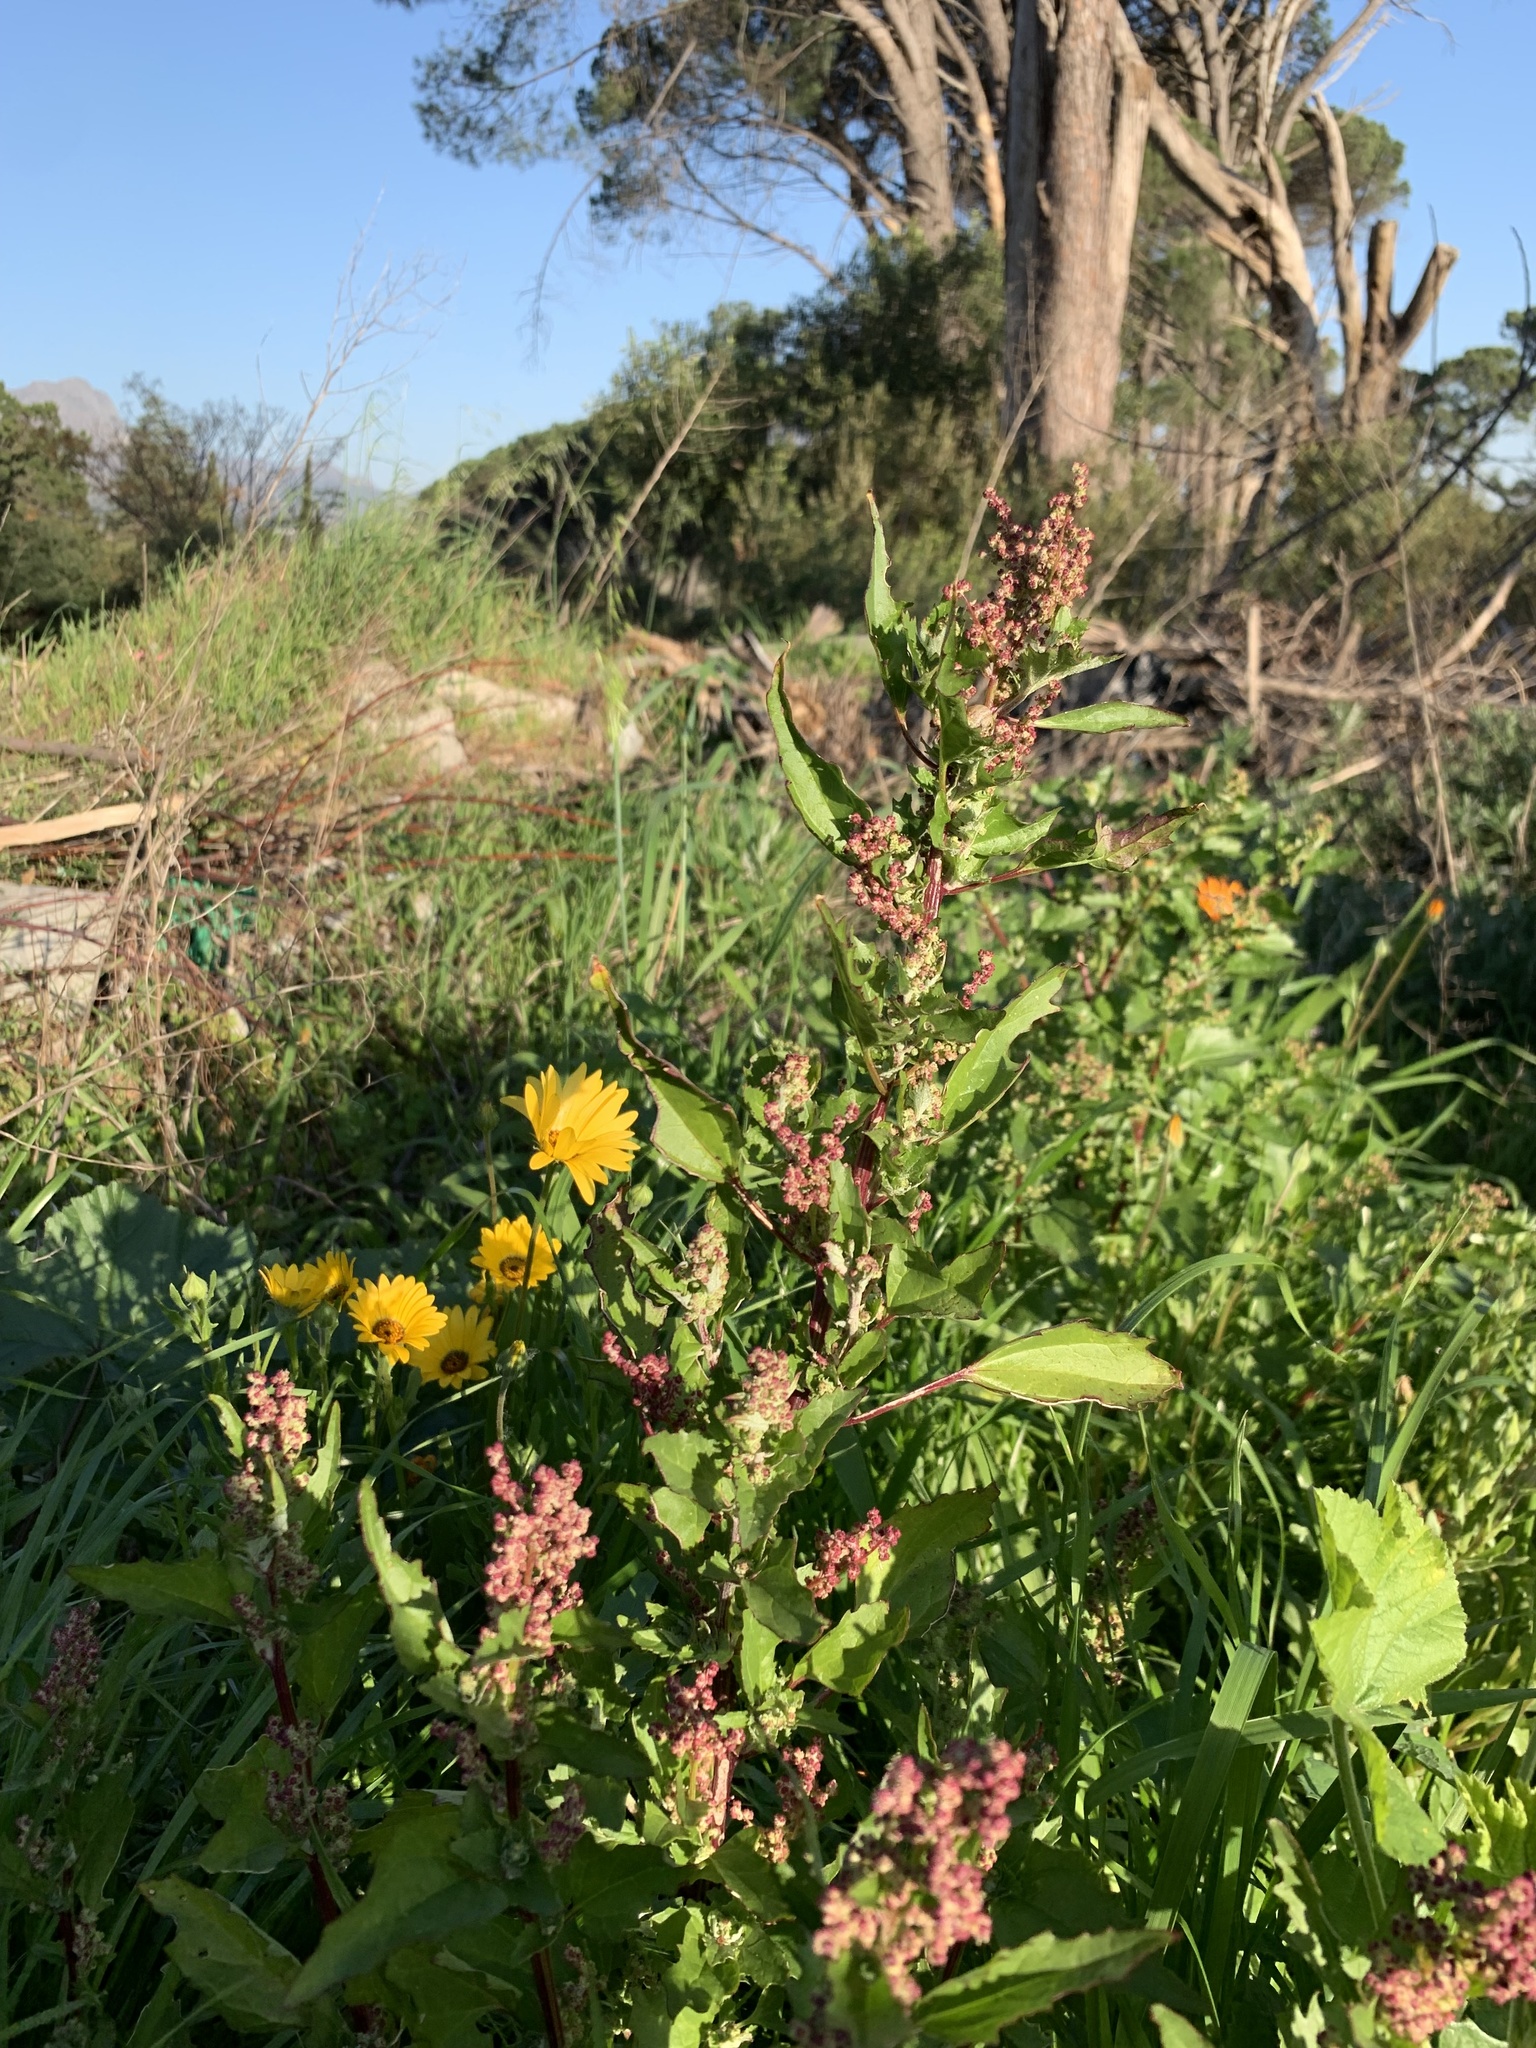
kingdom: Plantae
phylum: Tracheophyta
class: Magnoliopsida
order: Caryophyllales
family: Amaranthaceae
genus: Chenopodiastrum
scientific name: Chenopodiastrum murale
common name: Sowbane
